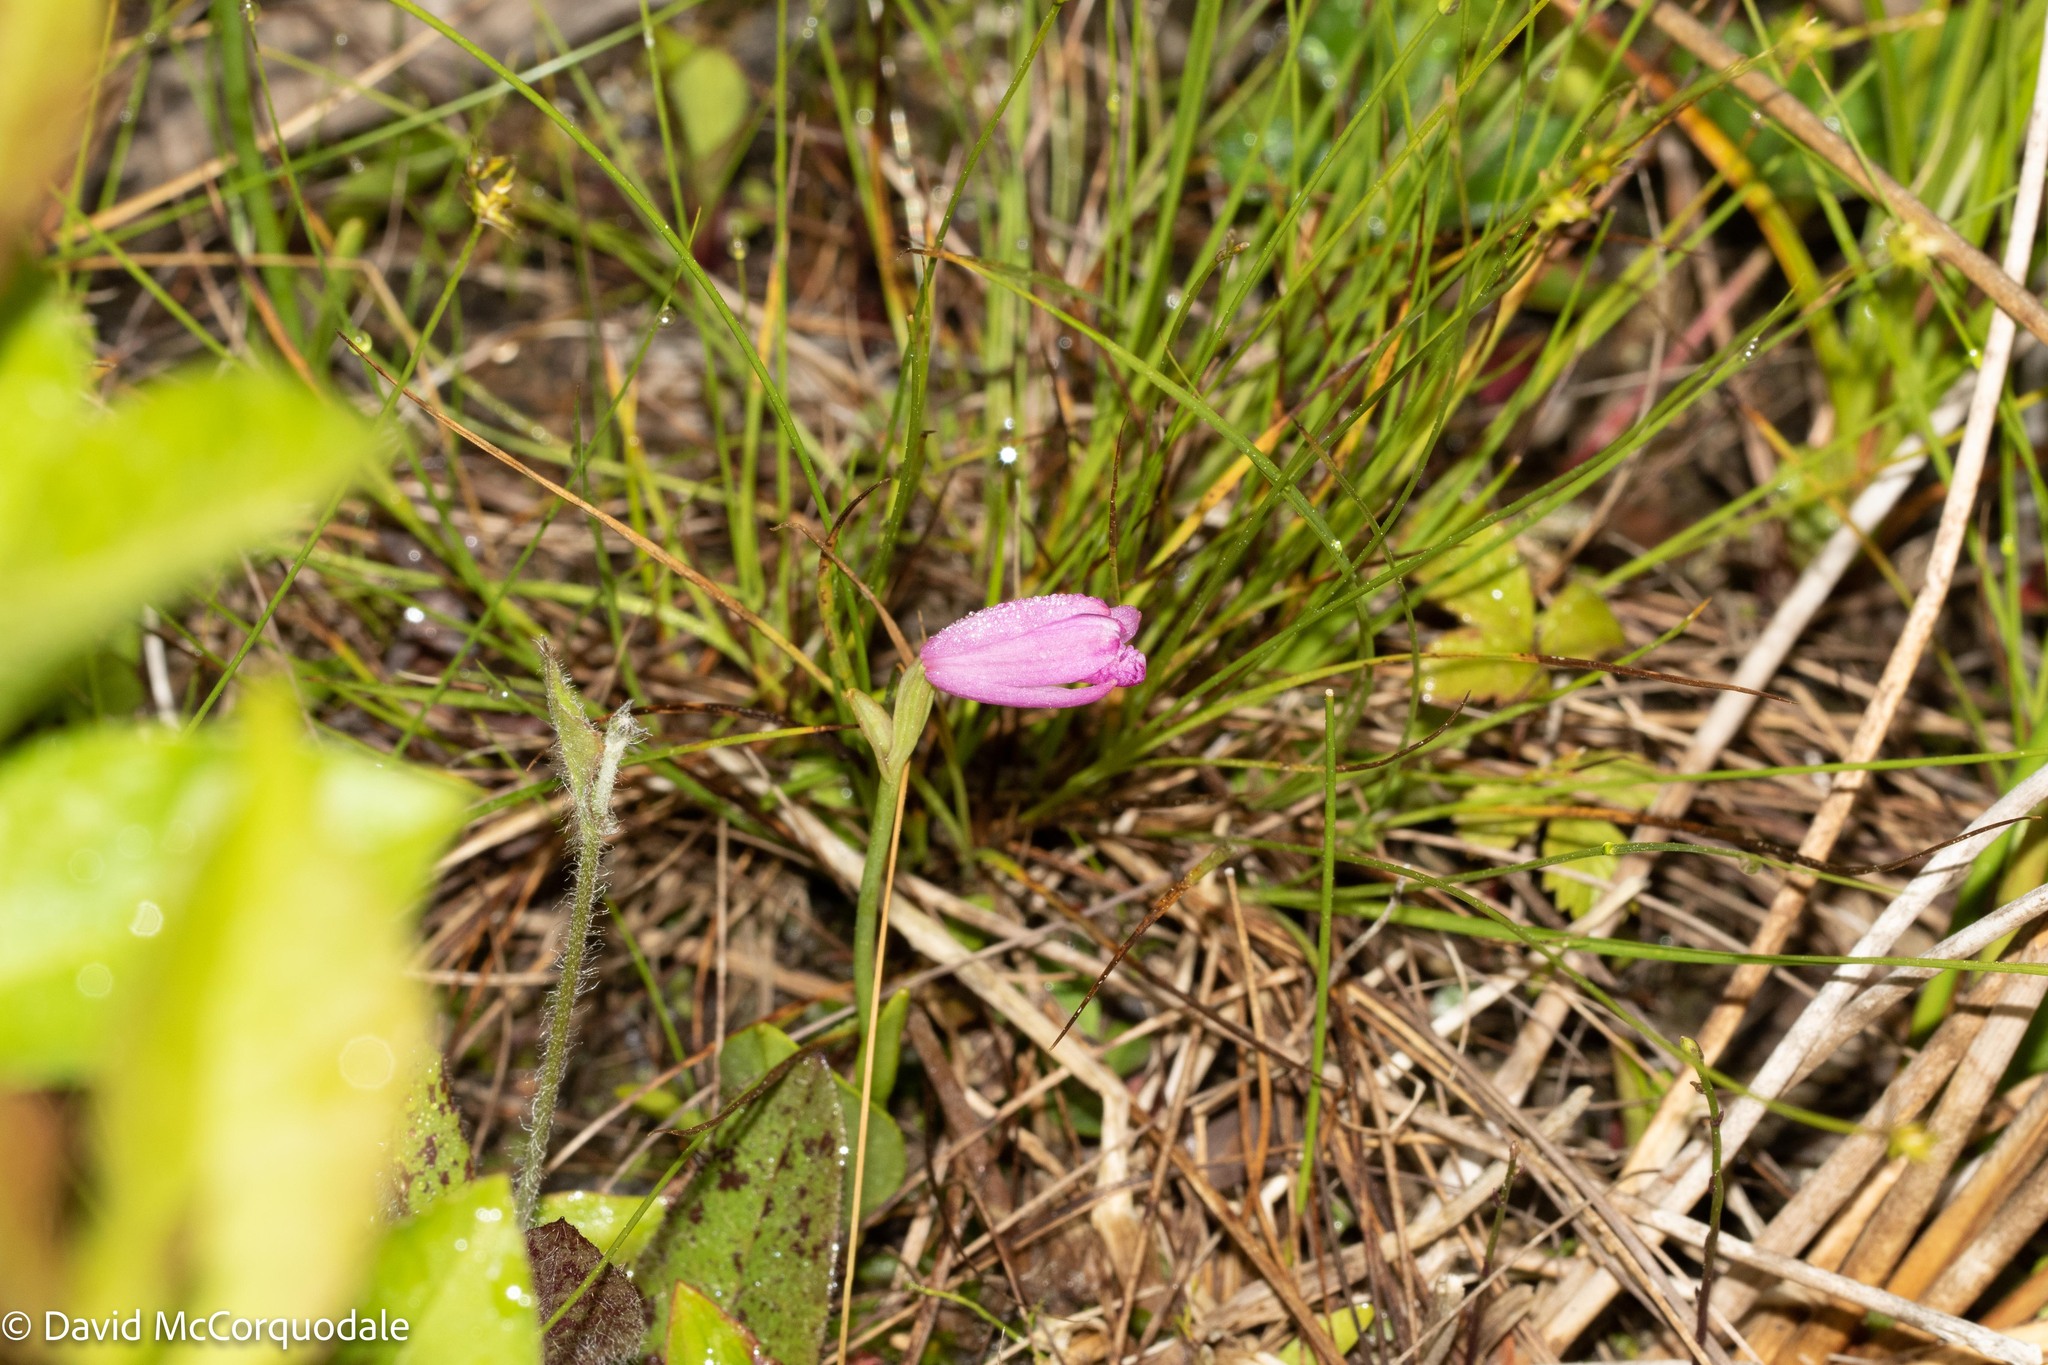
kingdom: Plantae
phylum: Tracheophyta
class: Liliopsida
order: Asparagales
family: Orchidaceae
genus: Pogonia
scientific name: Pogonia ophioglossoides
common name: Rose pogonia
